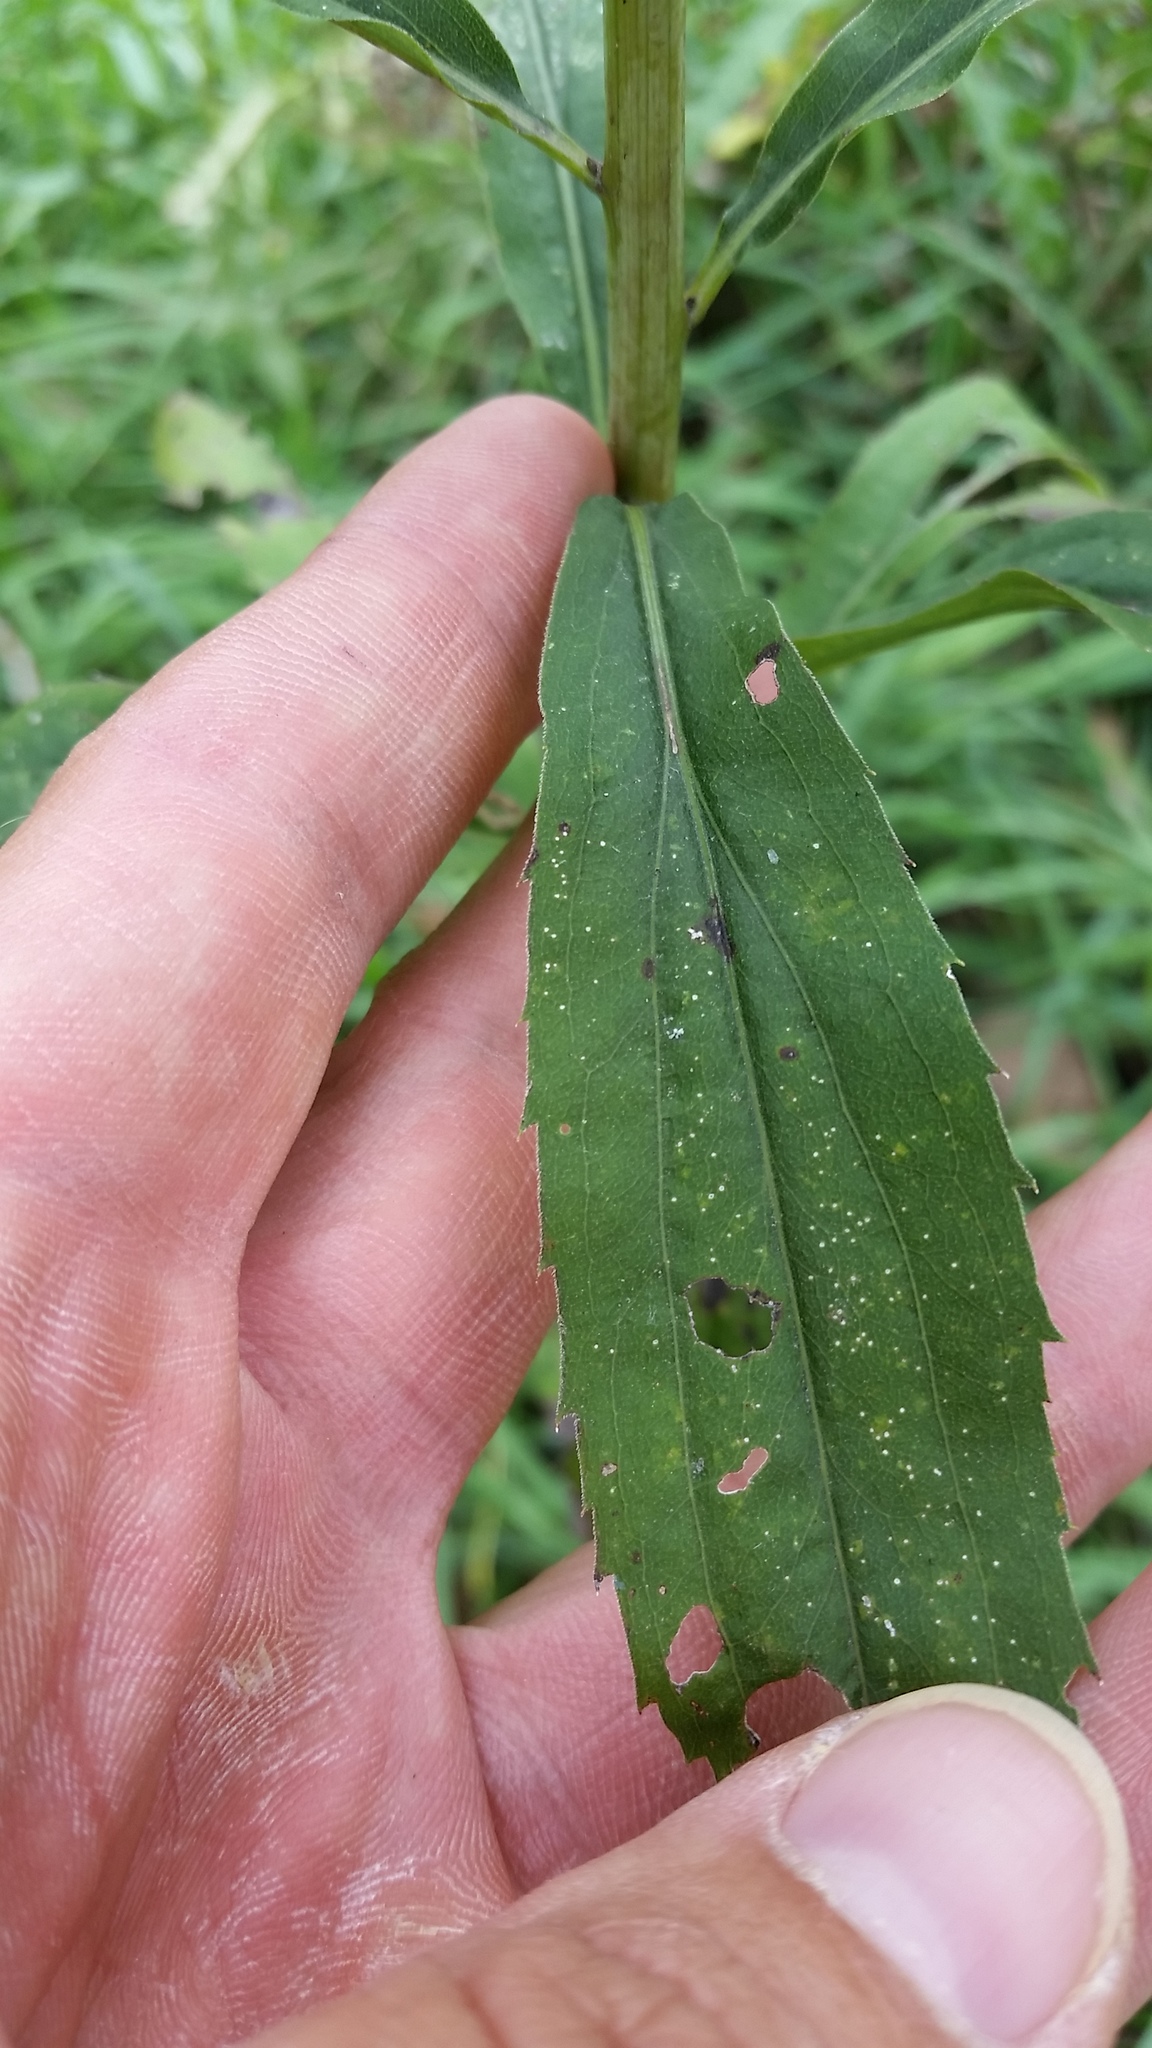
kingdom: Plantae
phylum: Tracheophyta
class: Magnoliopsida
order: Asterales
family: Asteraceae
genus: Solidago
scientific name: Solidago gigantea
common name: Giant goldenrod
